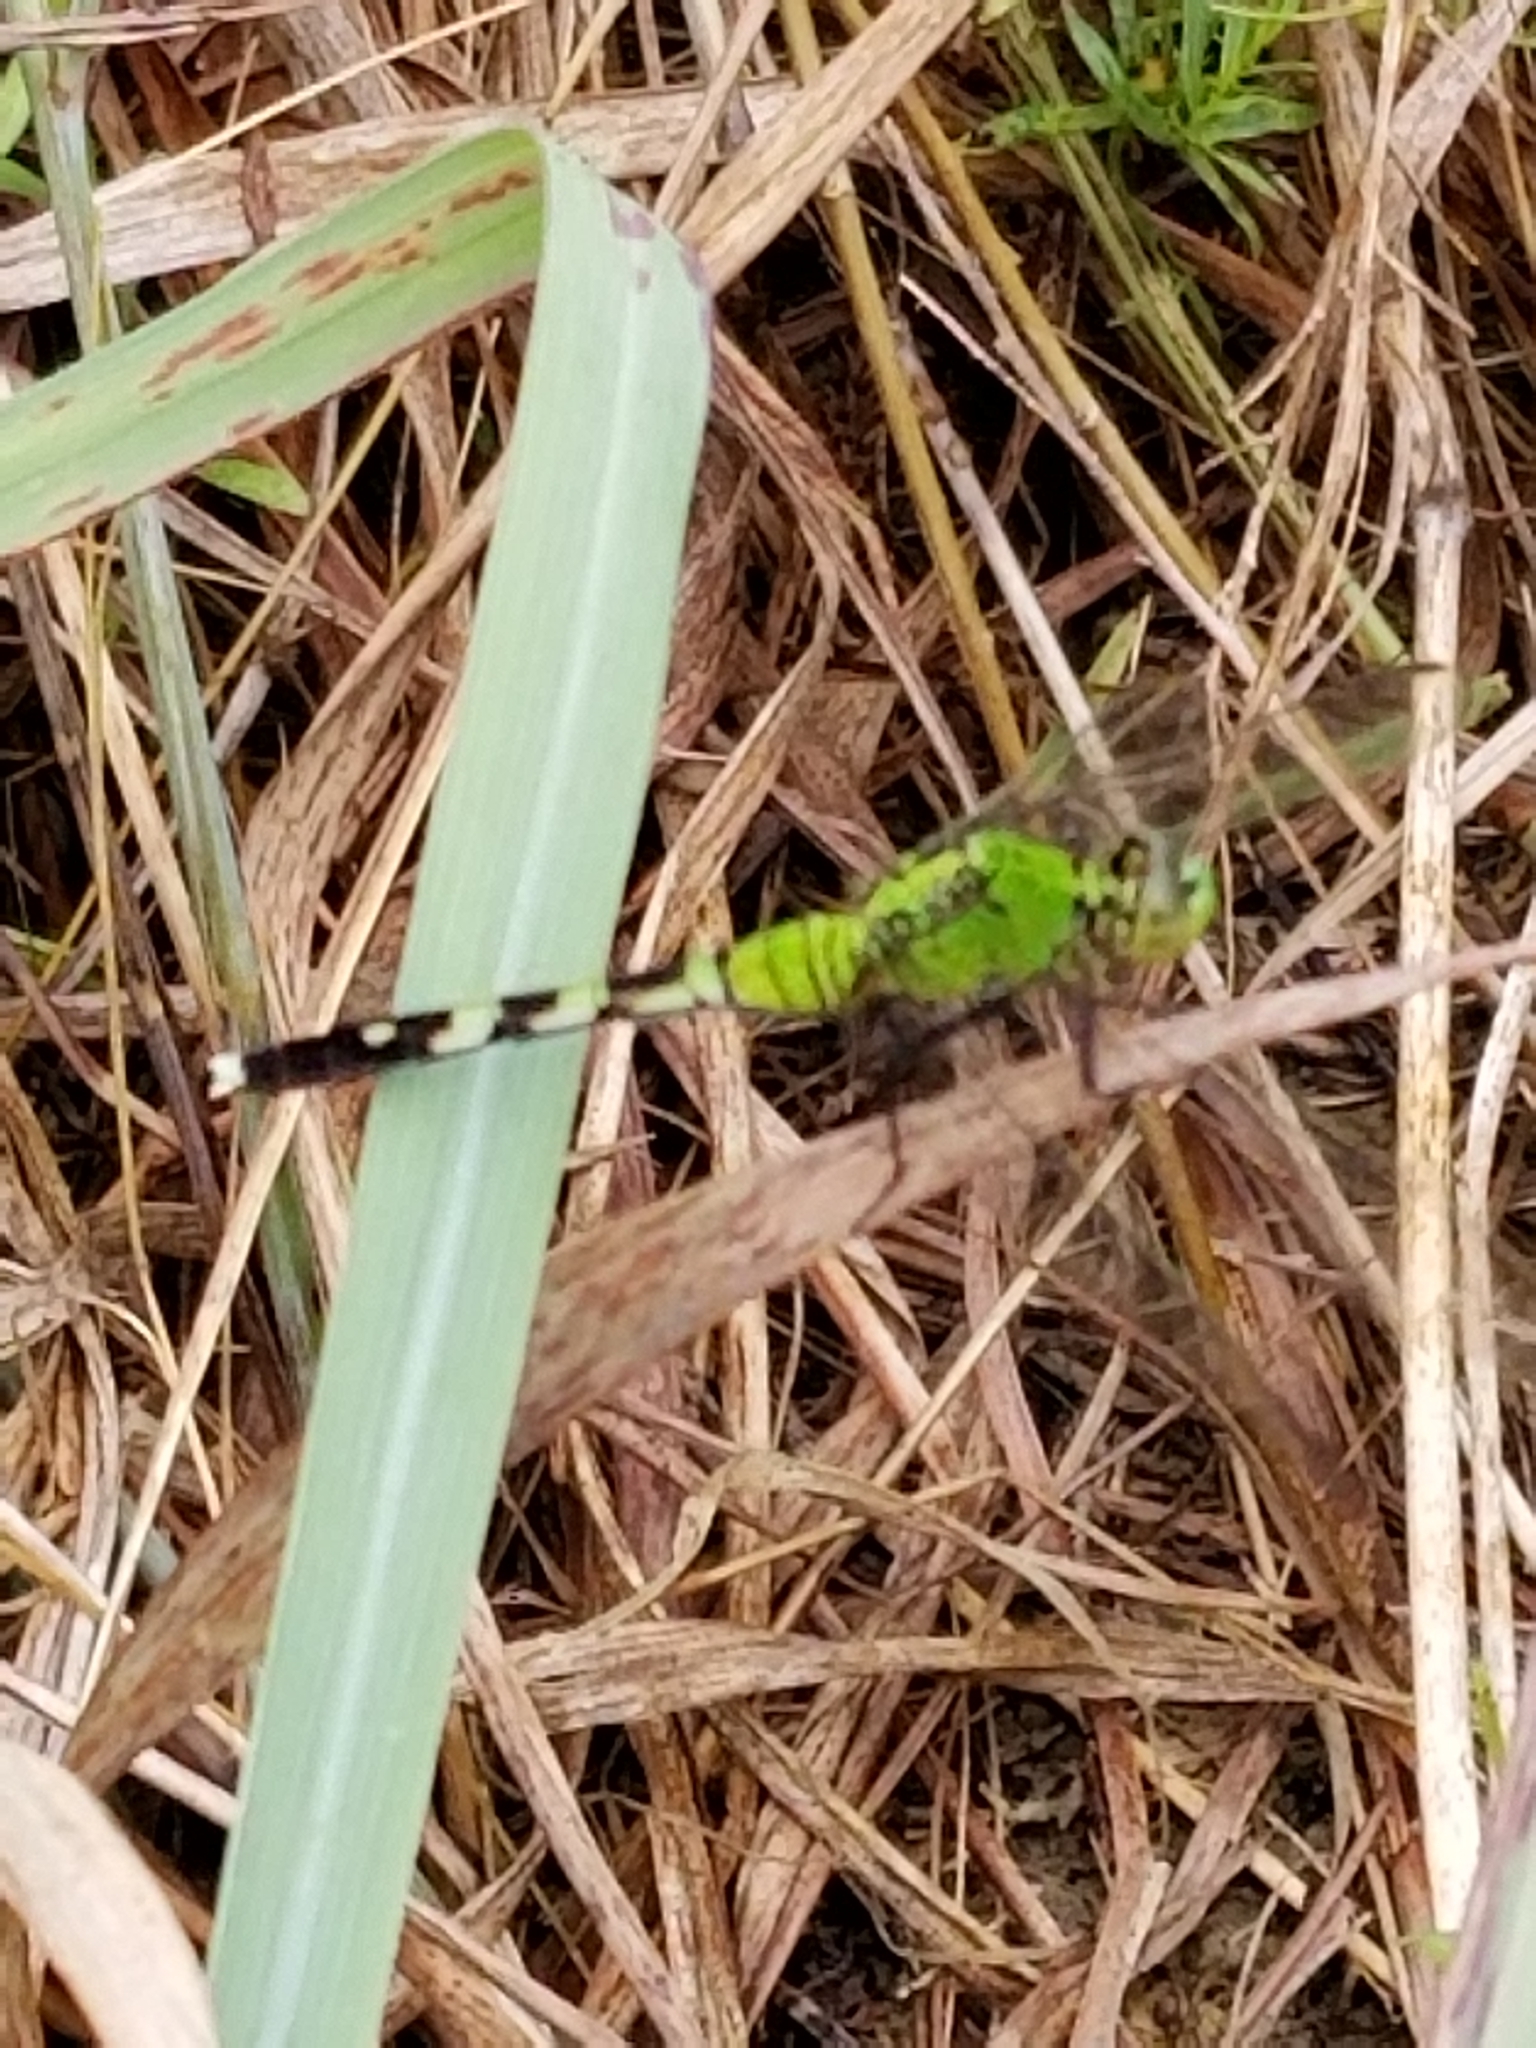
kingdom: Animalia
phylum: Arthropoda
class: Insecta
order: Odonata
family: Libellulidae
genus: Erythemis
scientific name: Erythemis simplicicollis
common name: Eastern pondhawk
